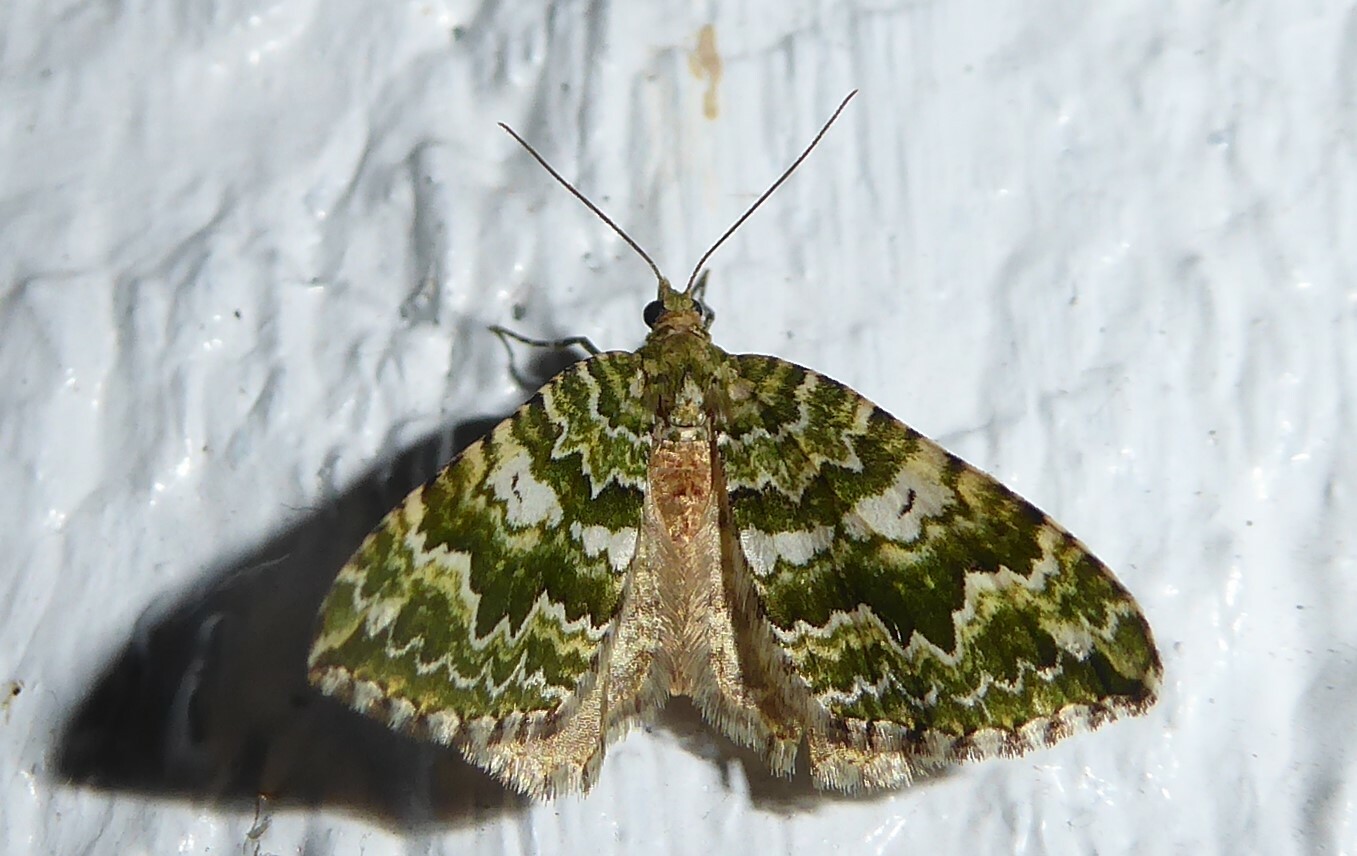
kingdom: Animalia
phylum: Arthropoda
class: Insecta
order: Lepidoptera
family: Geometridae
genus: Asaphodes
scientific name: Asaphodes beata
